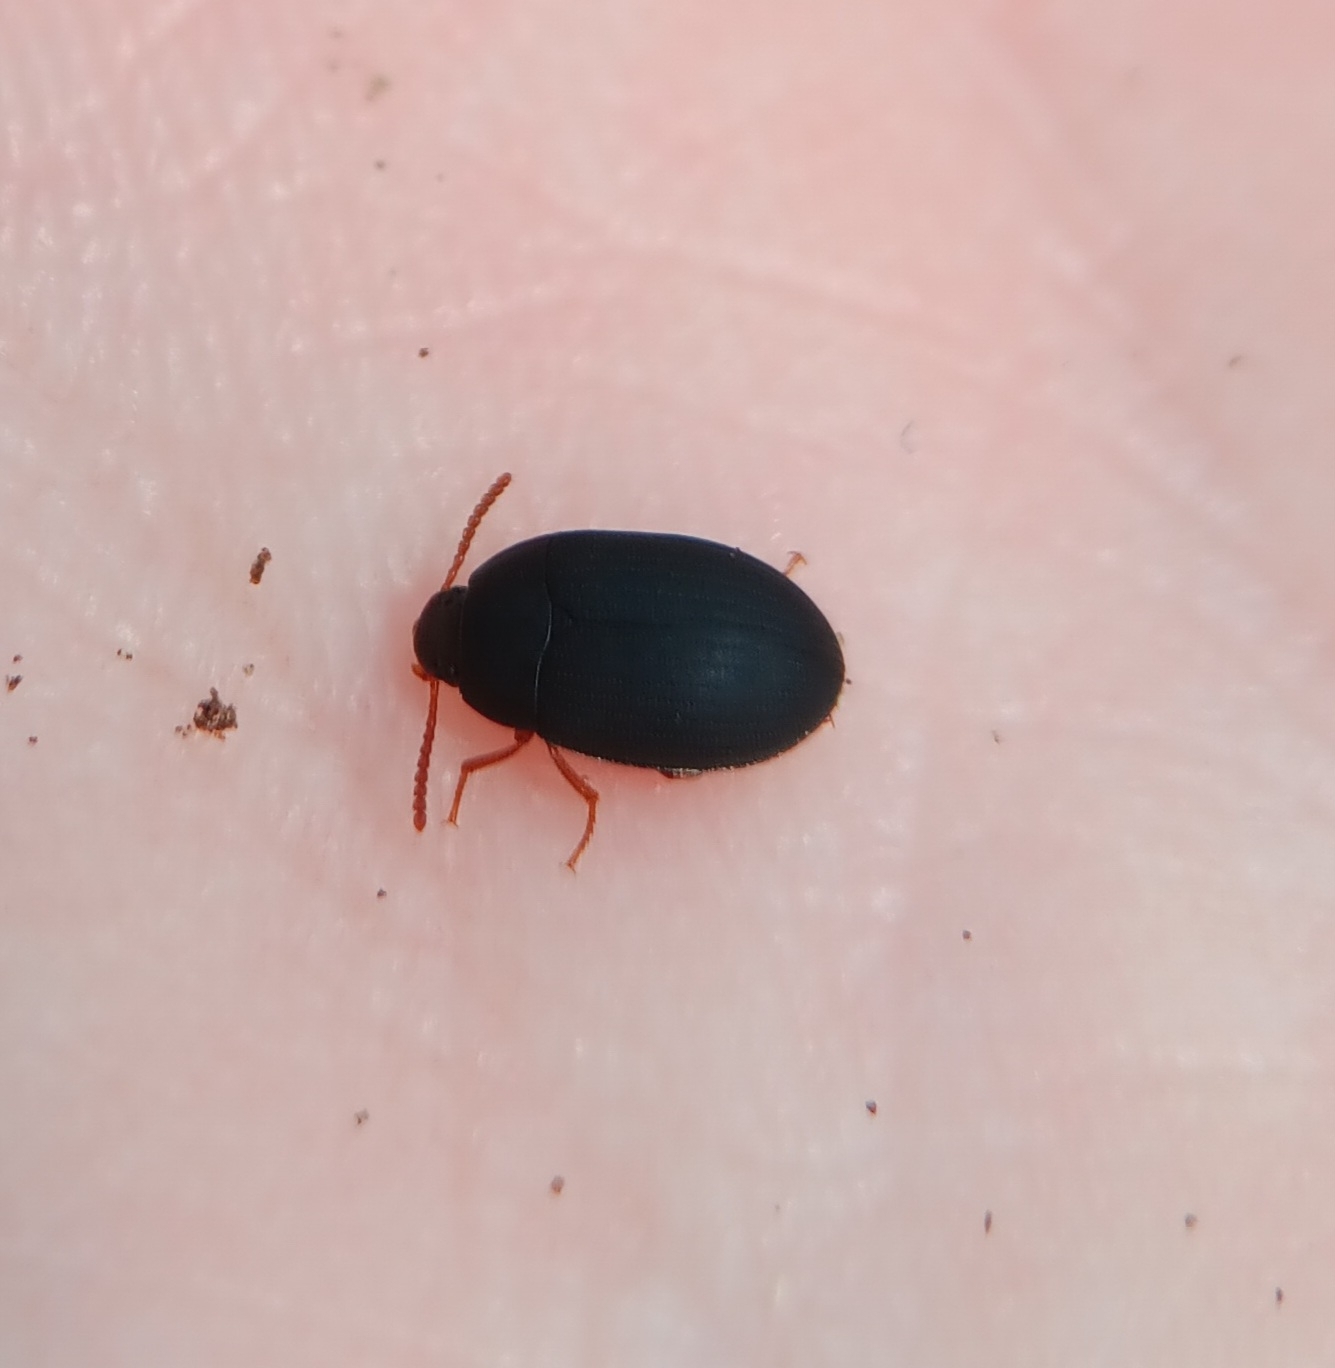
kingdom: Animalia
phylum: Arthropoda
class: Insecta
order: Coleoptera
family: Tenebrionidae
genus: Platydema
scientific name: Platydema ruficornis
